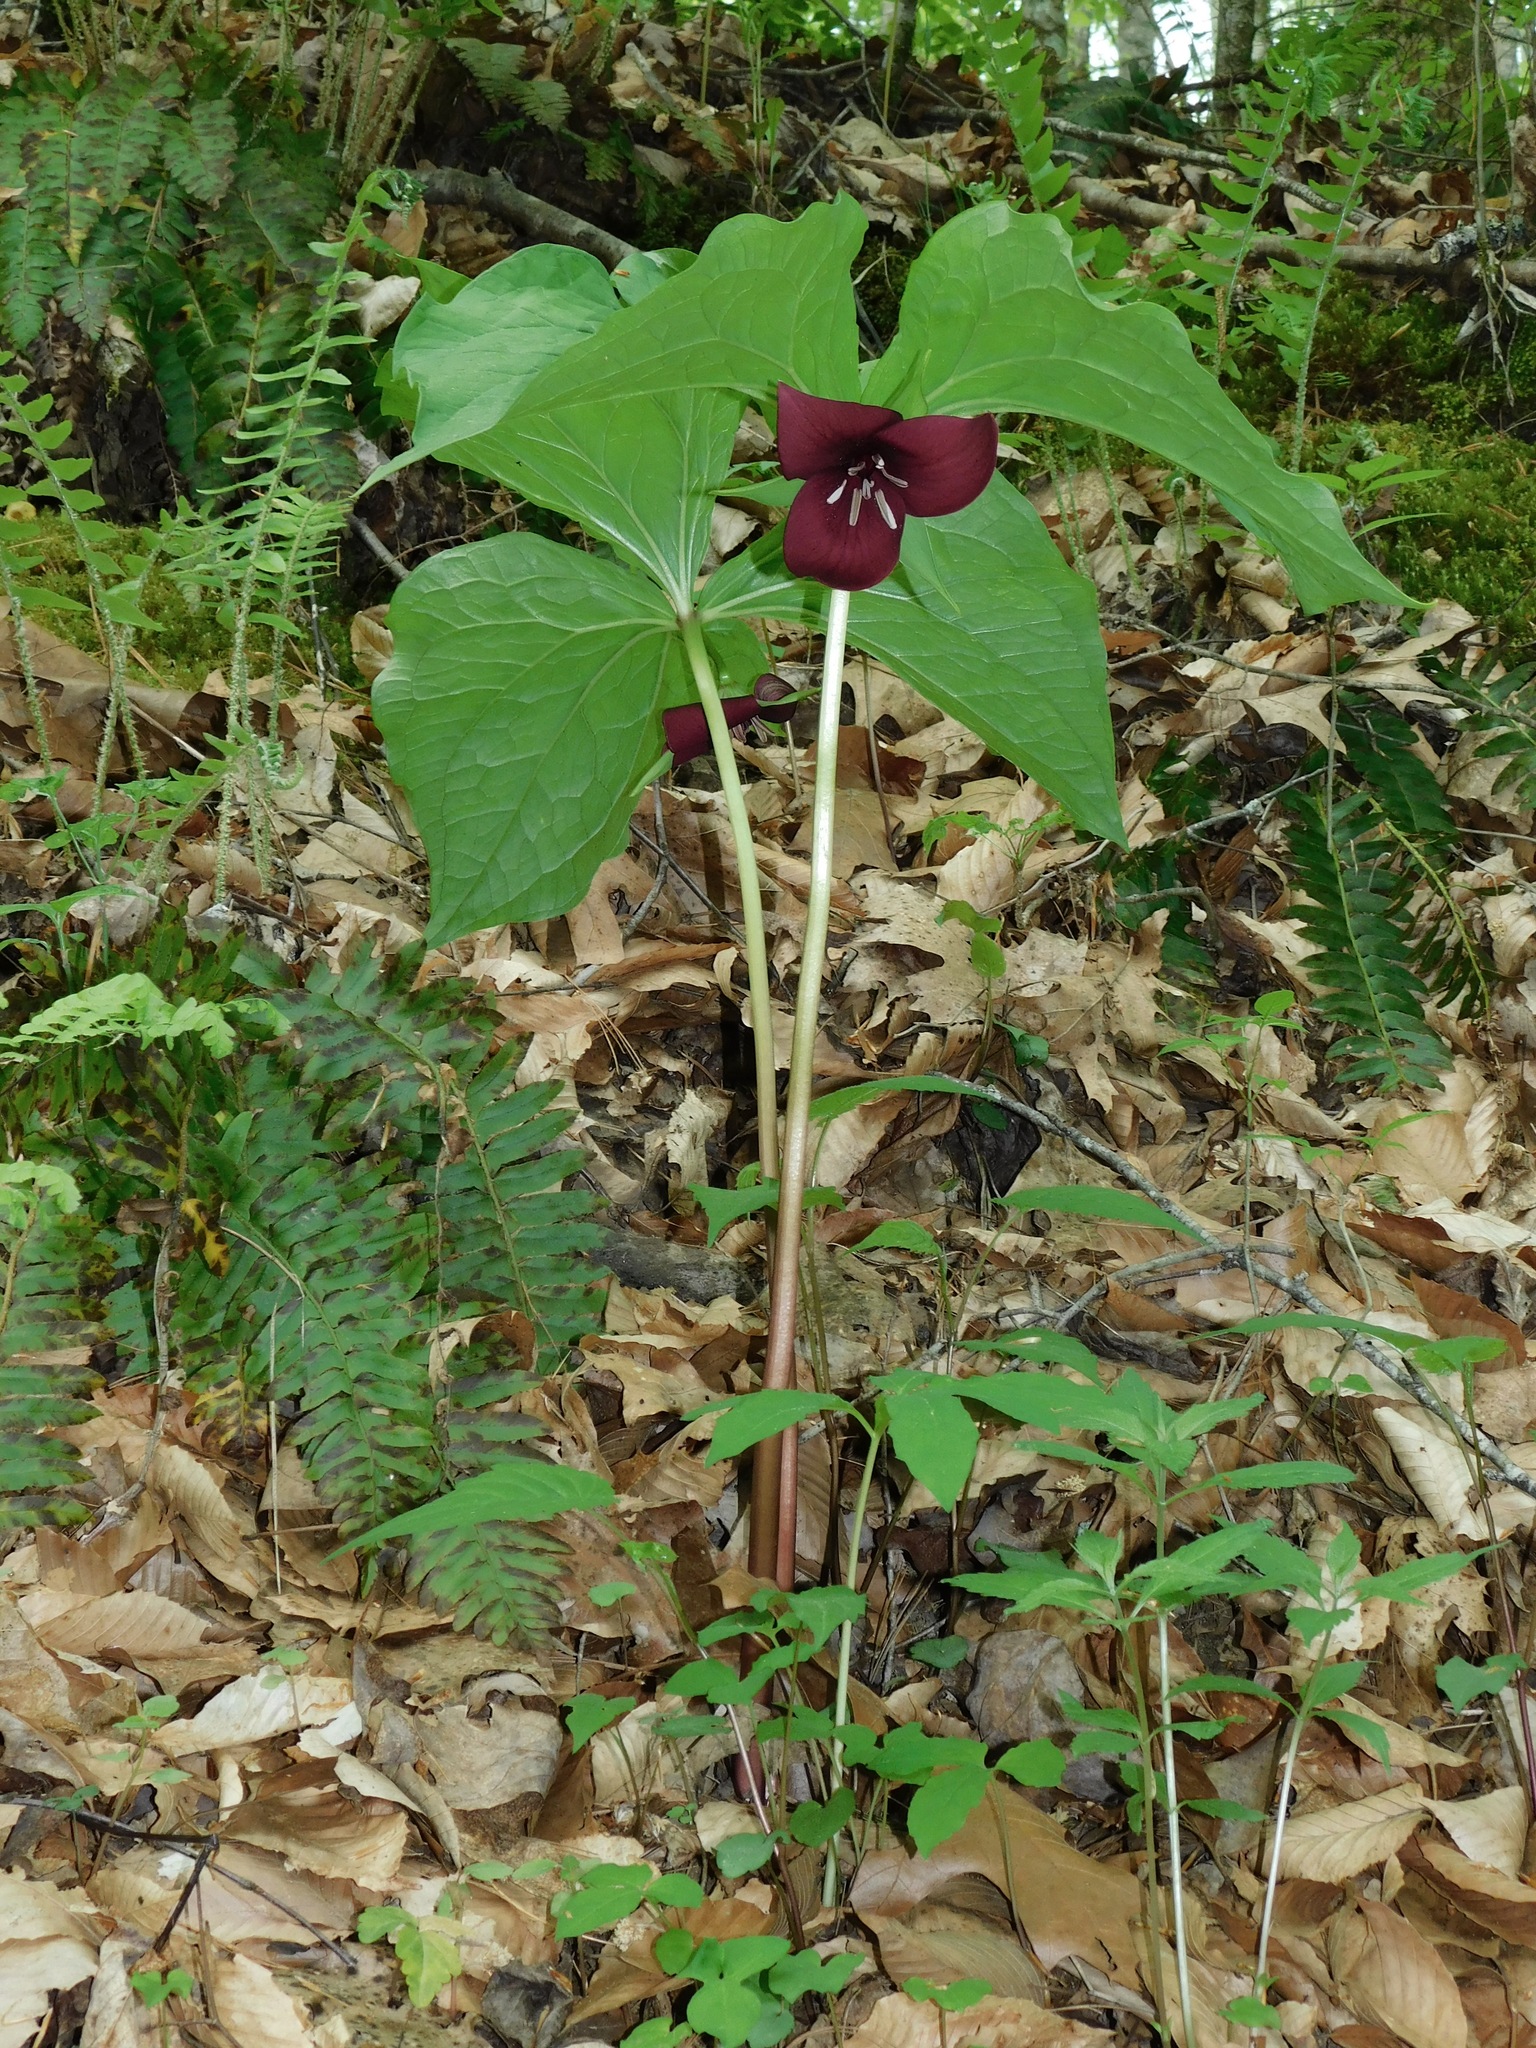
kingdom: Plantae
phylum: Tracheophyta
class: Liliopsida
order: Liliales
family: Melanthiaceae
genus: Trillium
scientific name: Trillium vaseyi
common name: Sweet trillium
